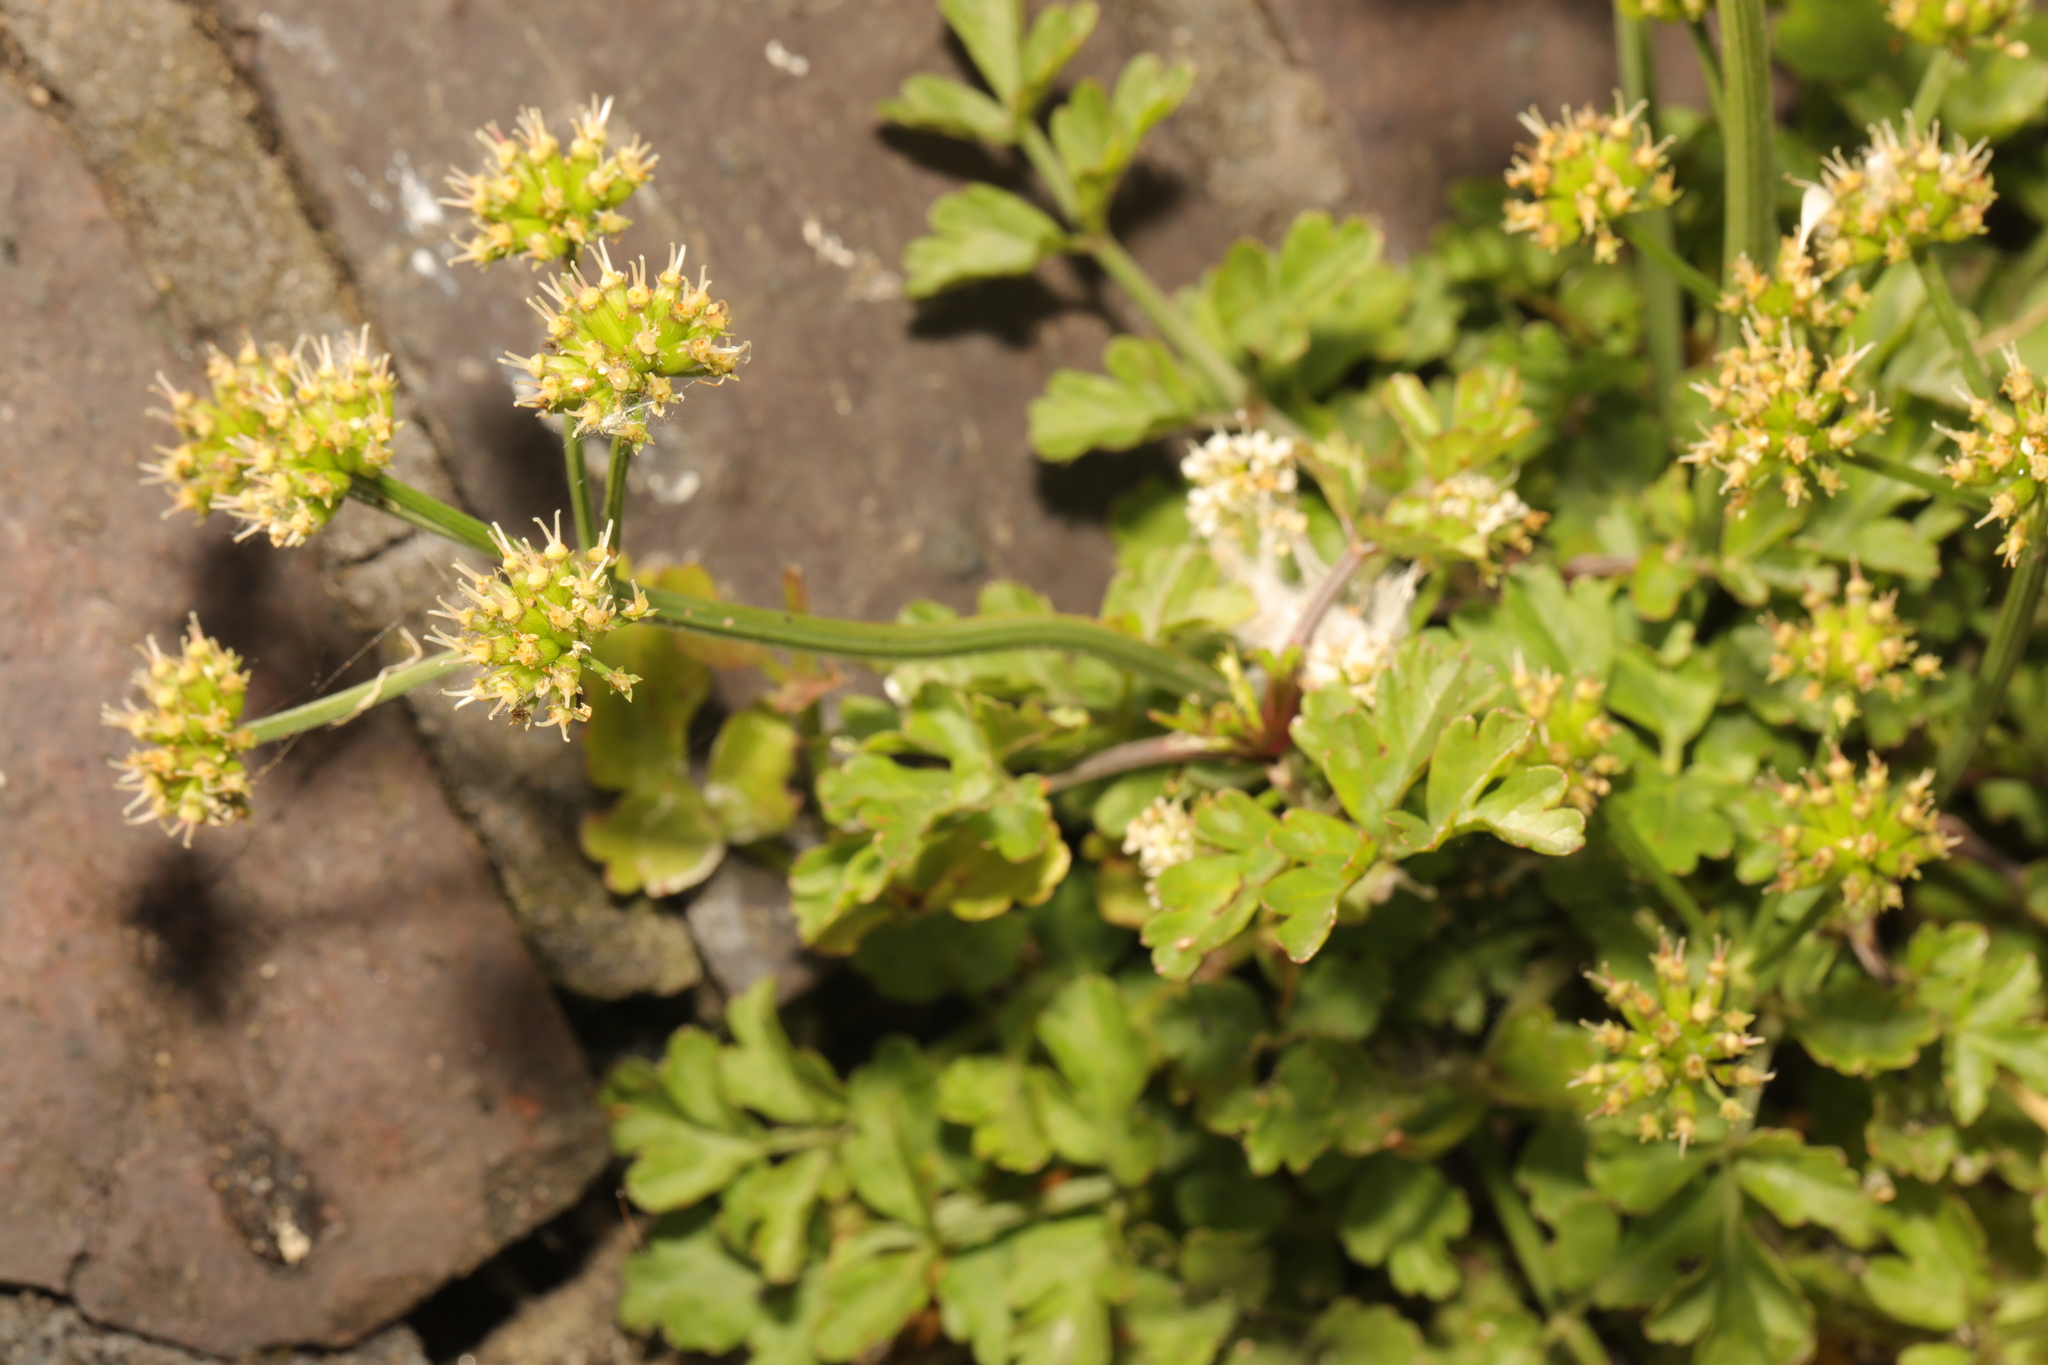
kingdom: Plantae
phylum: Tracheophyta
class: Magnoliopsida
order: Apiales
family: Apiaceae
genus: Oenanthe
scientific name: Oenanthe crocata
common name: Hemlock water-dropwort
